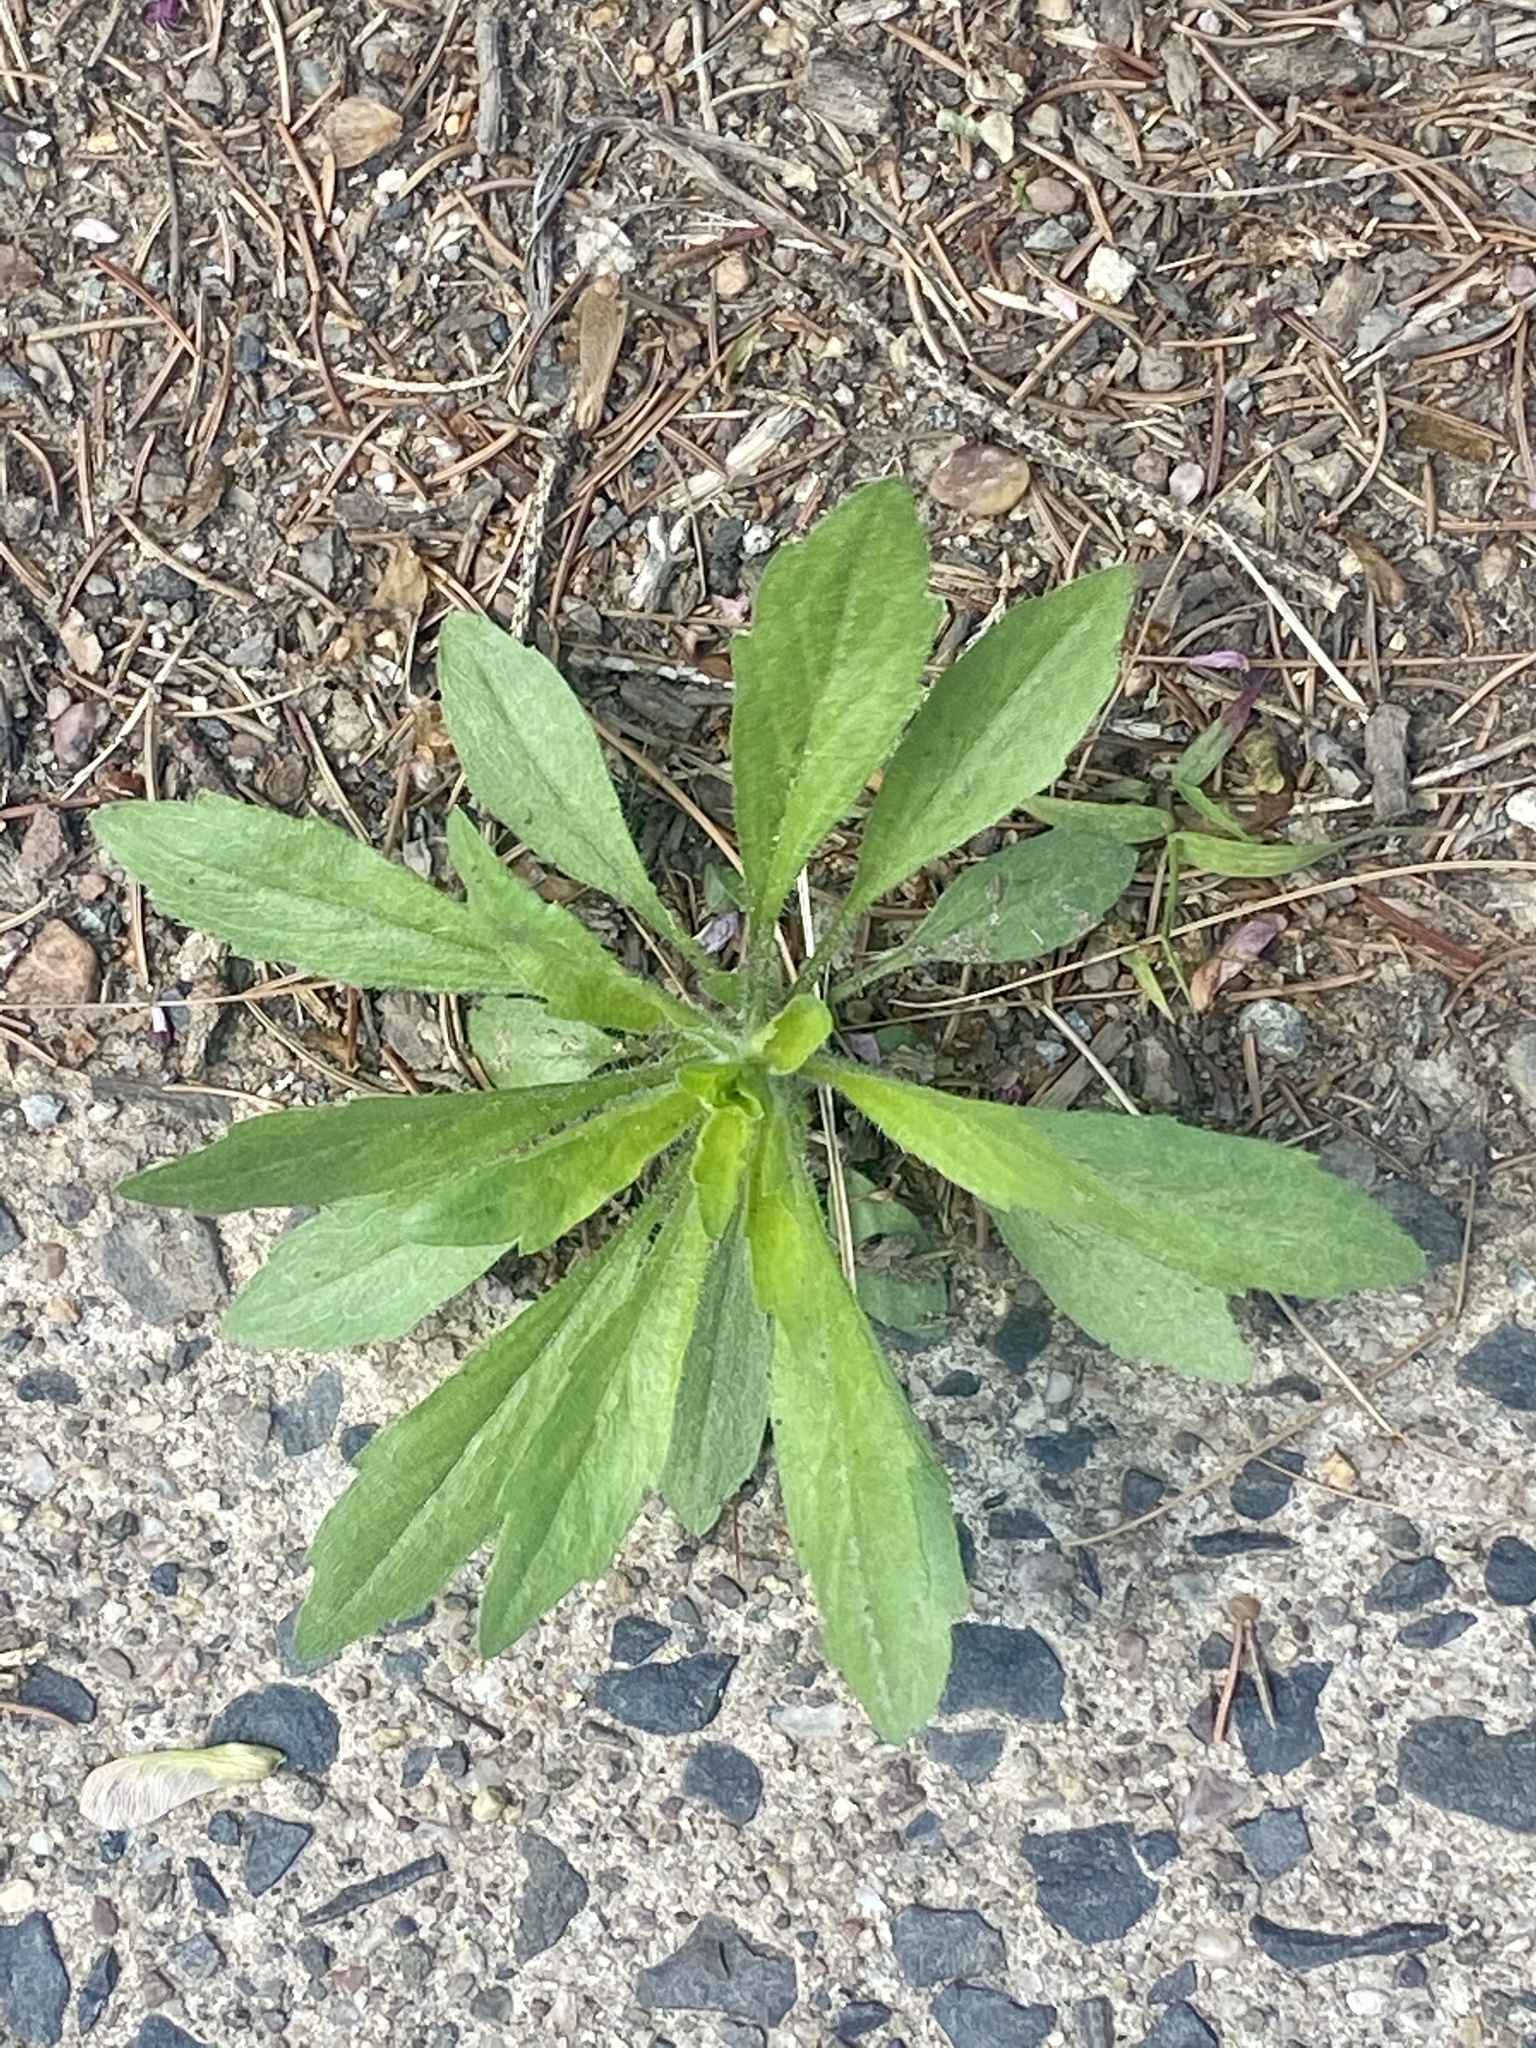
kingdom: Plantae
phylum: Tracheophyta
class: Magnoliopsida
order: Asterales
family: Asteraceae
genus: Erigeron
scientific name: Erigeron canadensis
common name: Canadian fleabane
